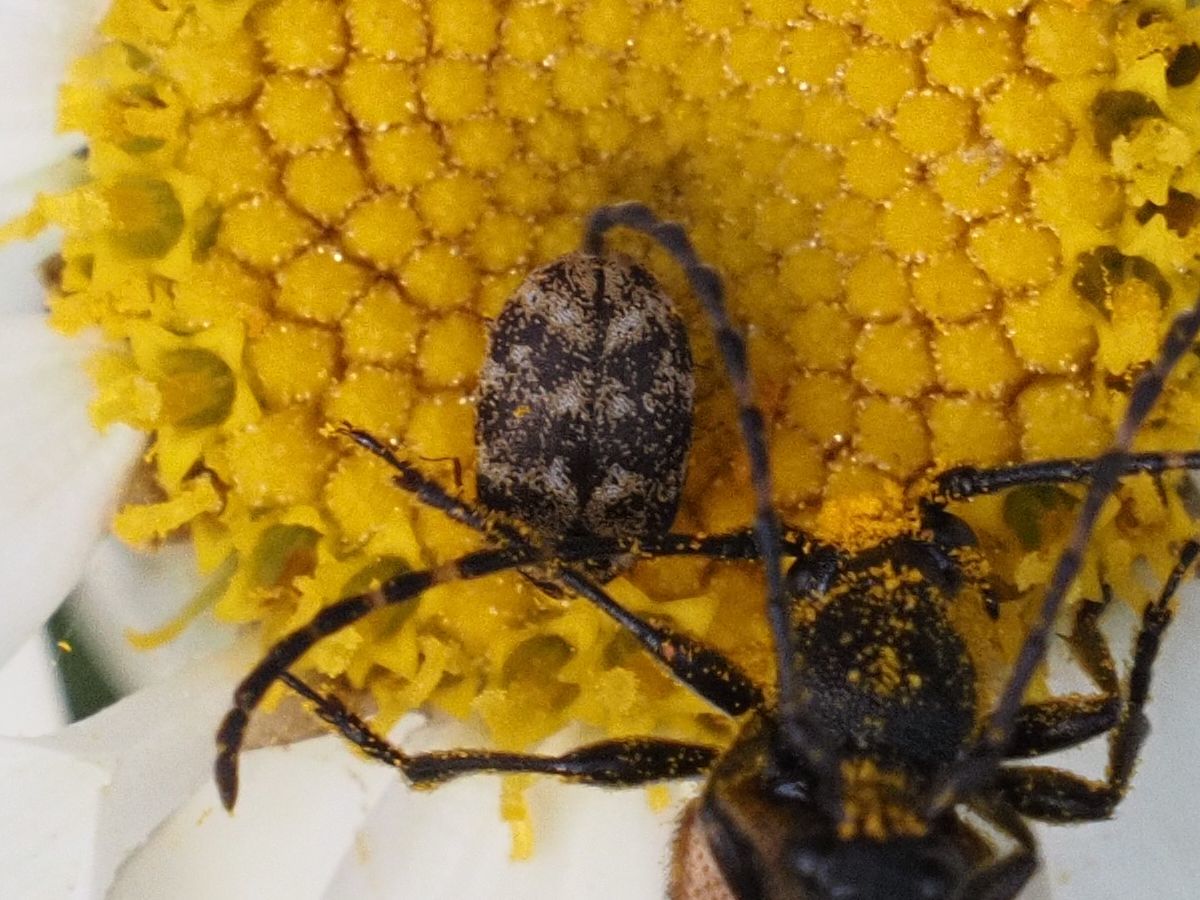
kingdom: Animalia
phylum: Arthropoda
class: Insecta
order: Coleoptera
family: Dermestidae
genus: Anthrenus
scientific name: Anthrenus verbasci
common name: Varied carpet beetle
